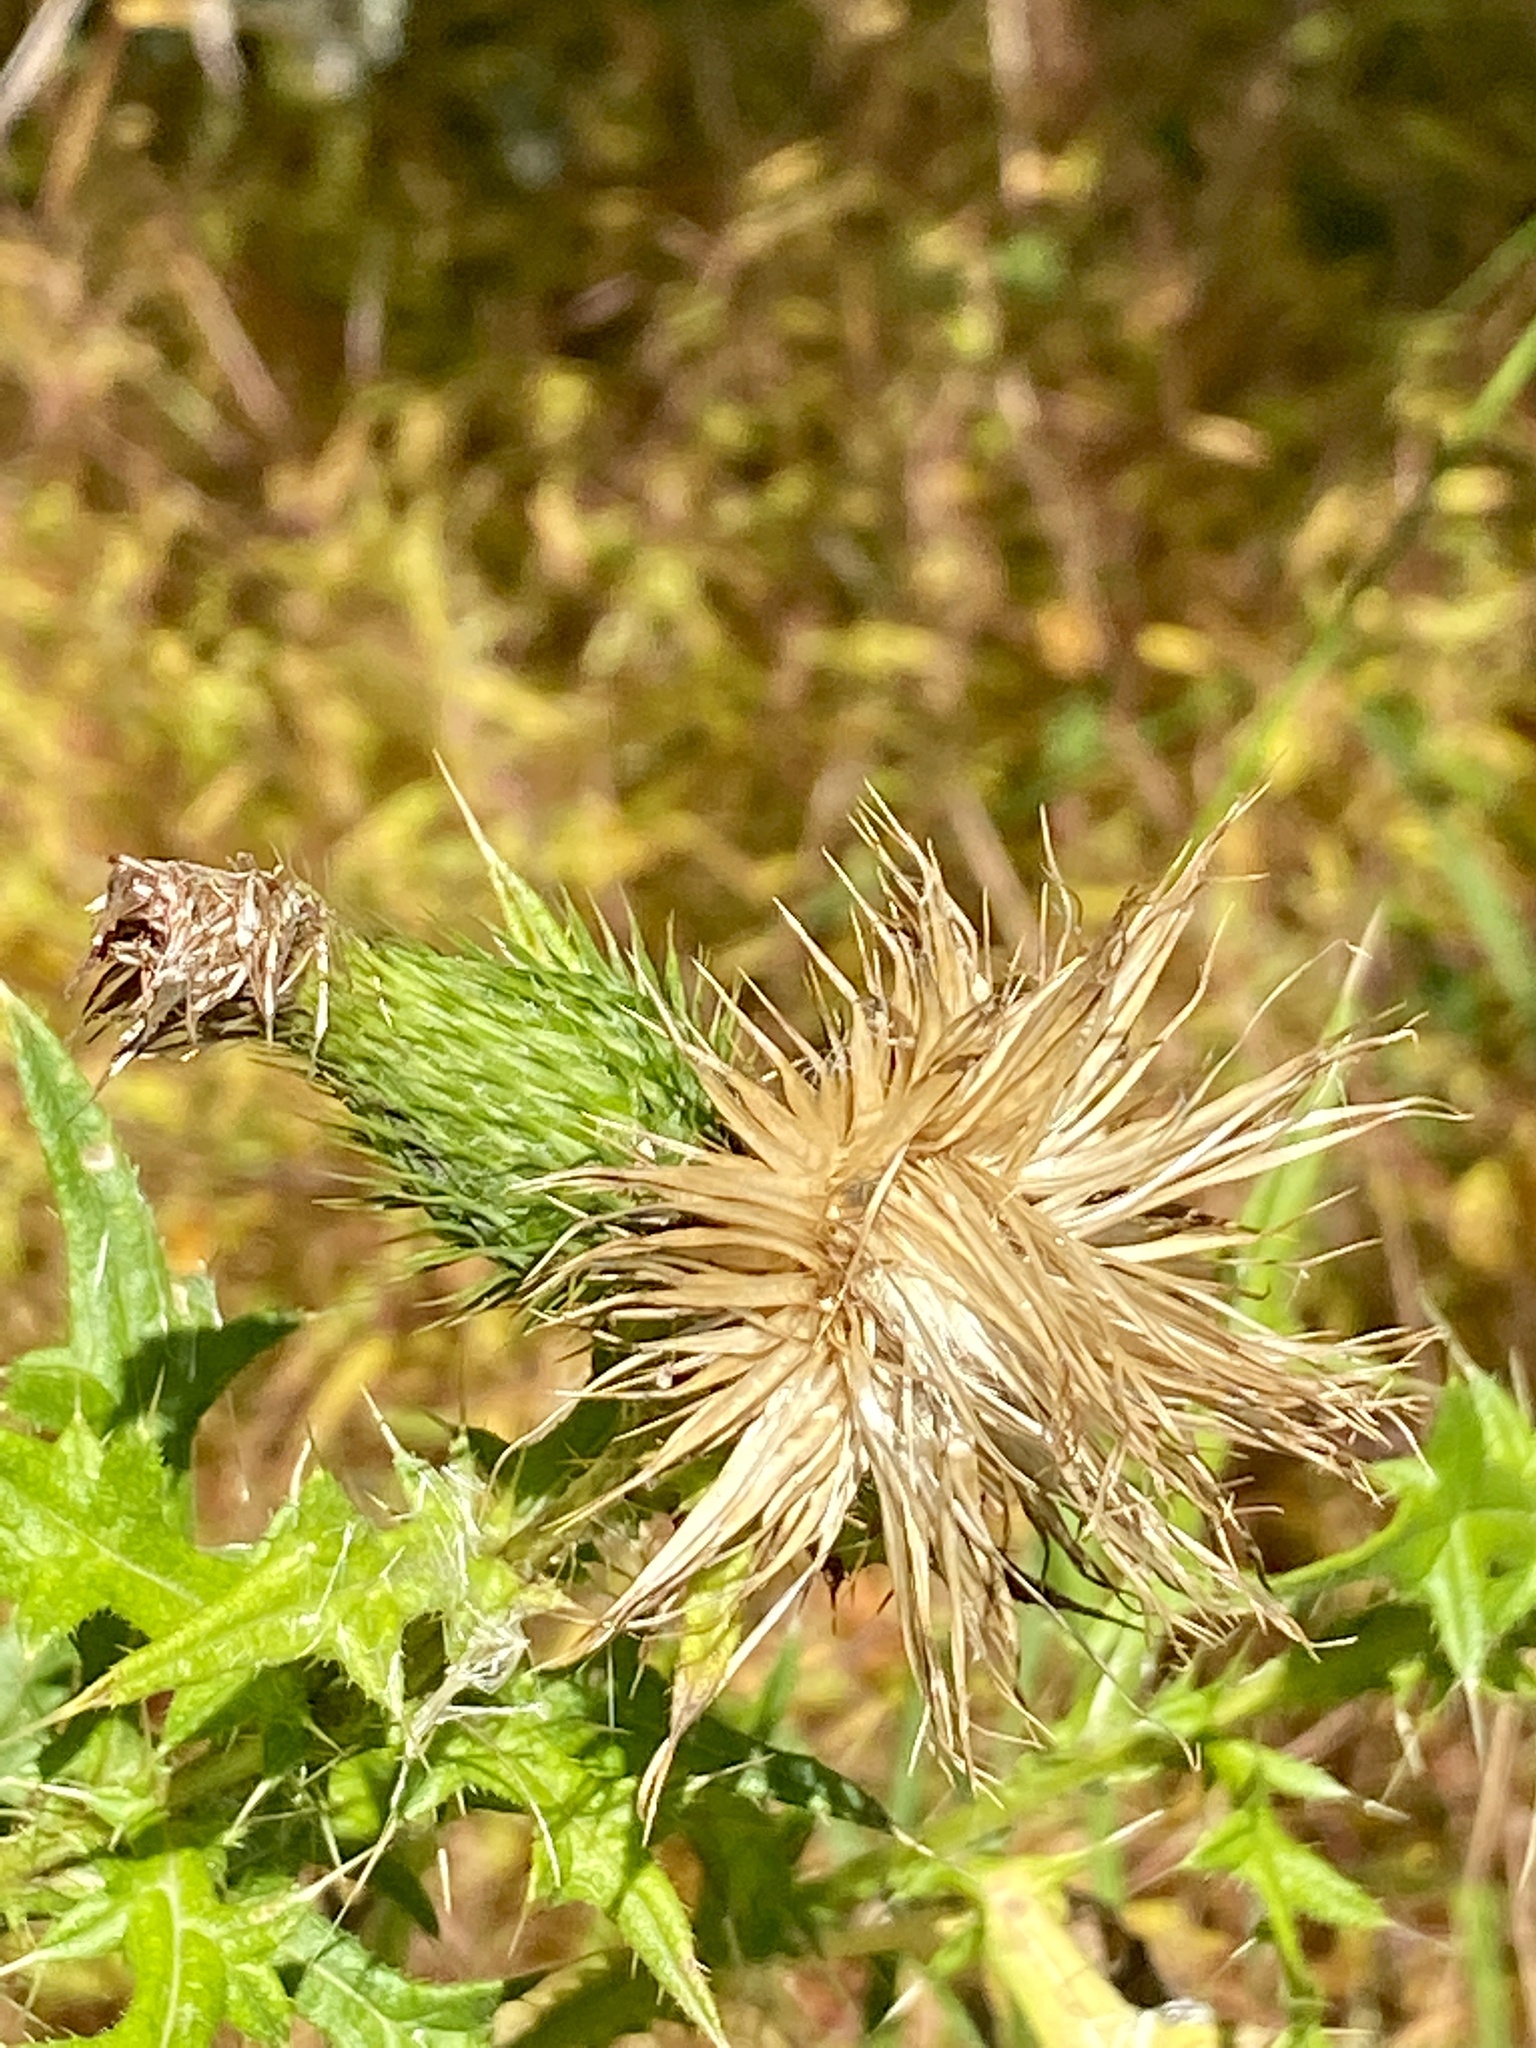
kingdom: Plantae
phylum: Tracheophyta
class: Magnoliopsida
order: Asterales
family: Asteraceae
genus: Cirsium
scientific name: Cirsium vulgare
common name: Bull thistle
